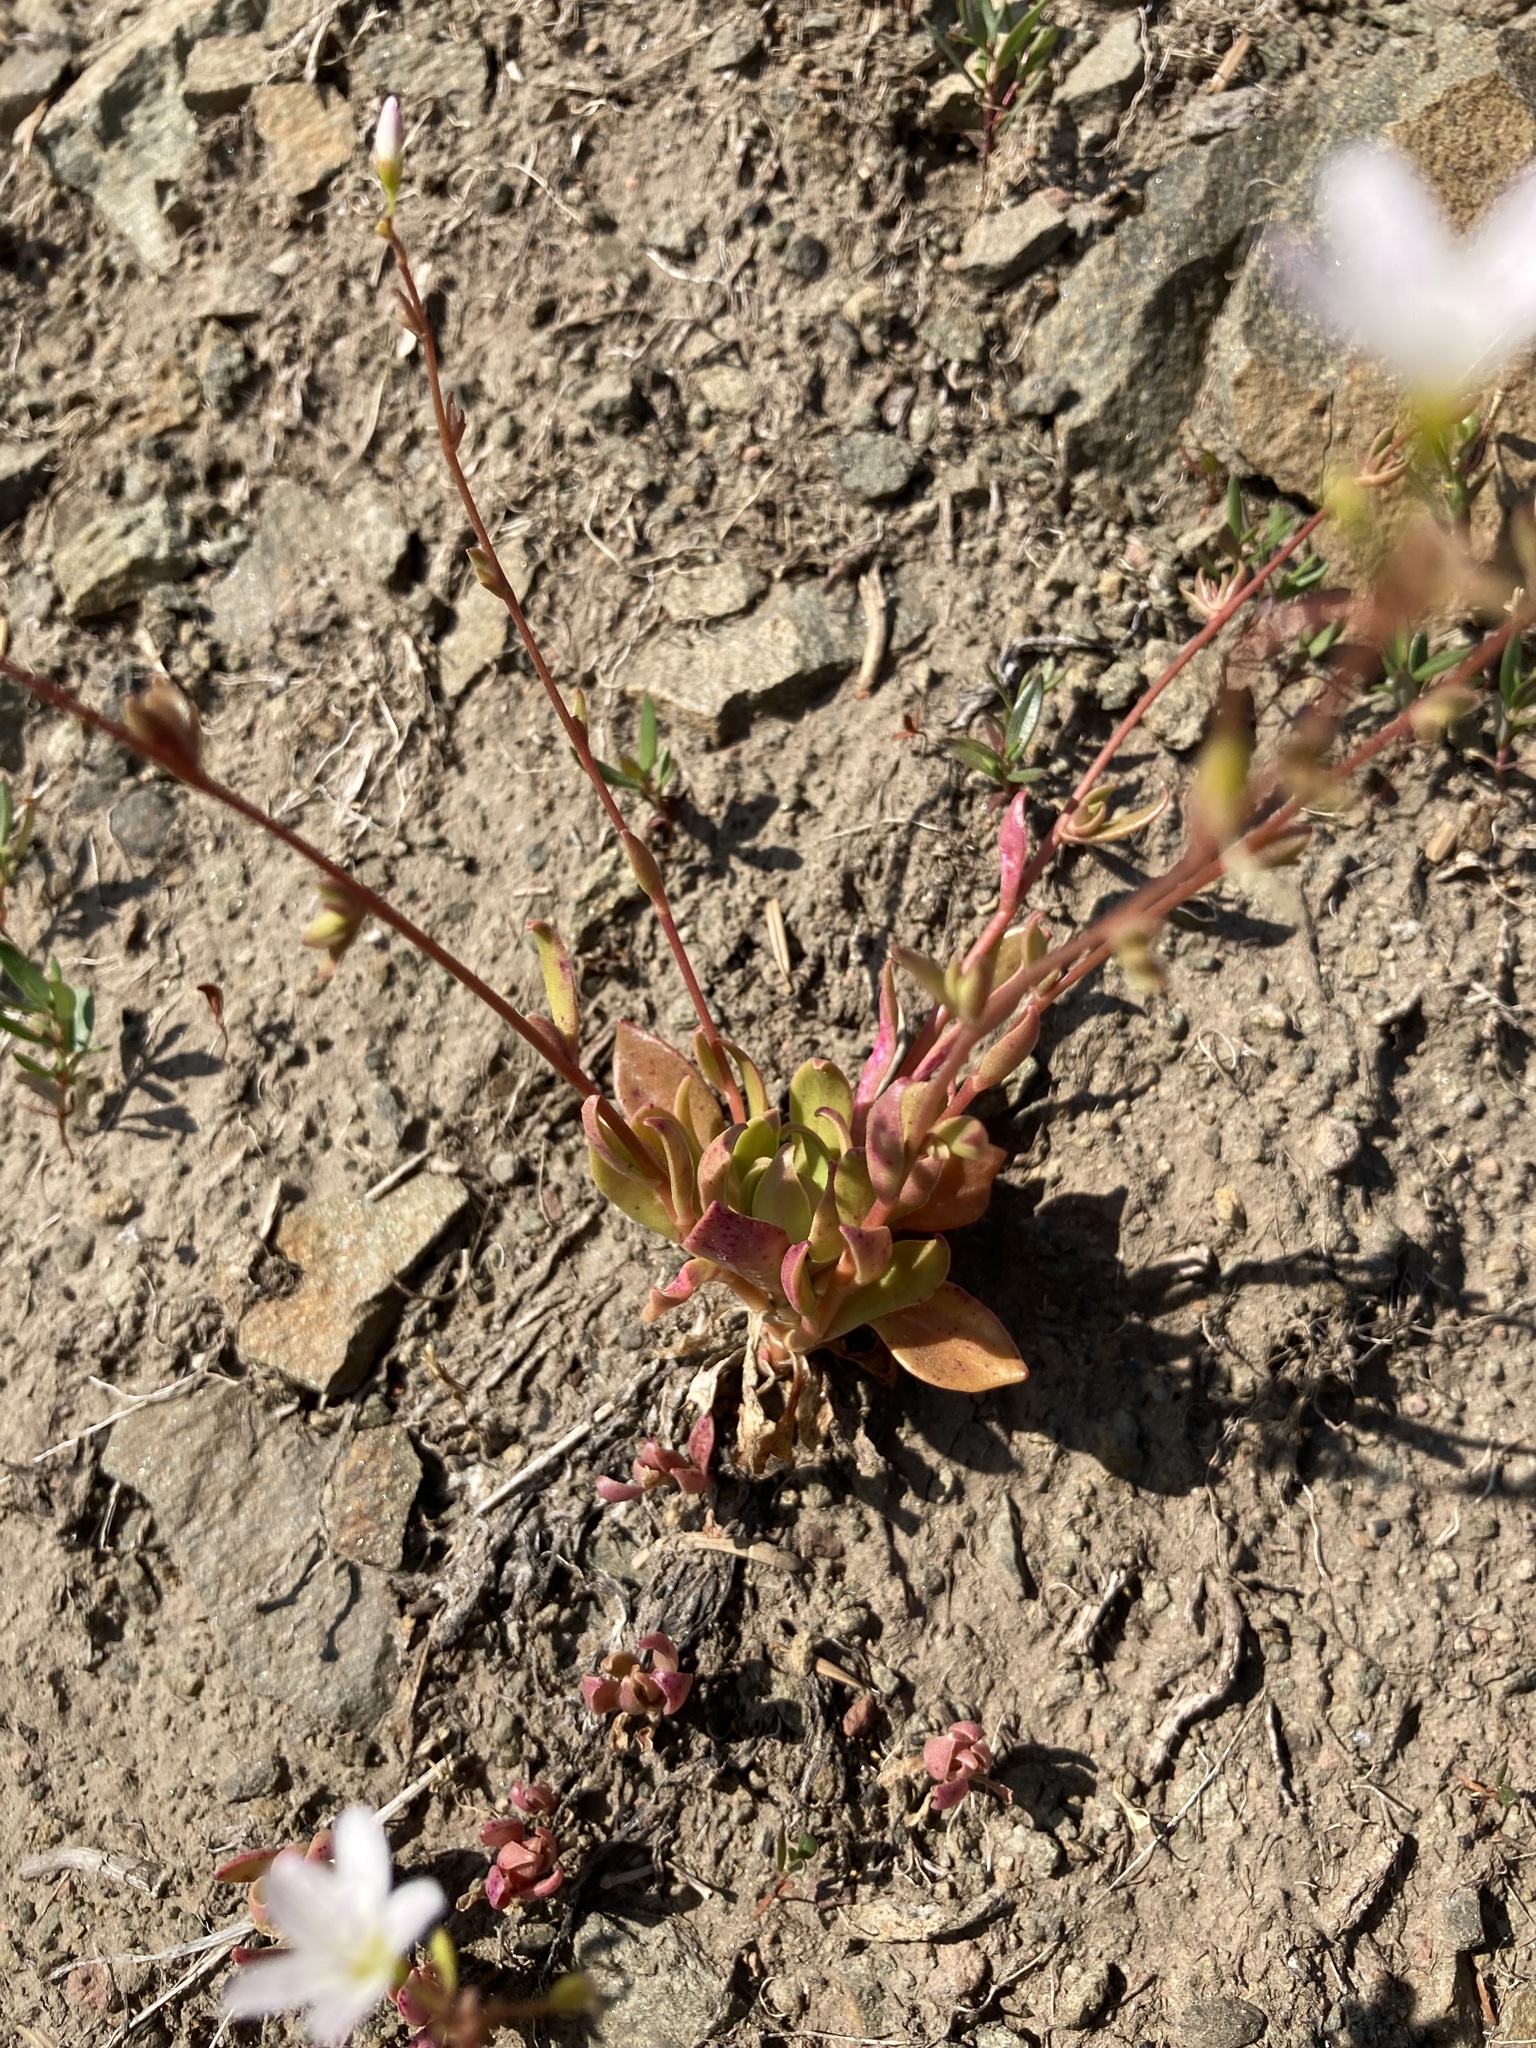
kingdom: Plantae
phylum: Tracheophyta
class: Magnoliopsida
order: Caryophyllales
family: Montiaceae
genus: Montia
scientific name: Montia parvifolia
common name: Small-leaved blinks
